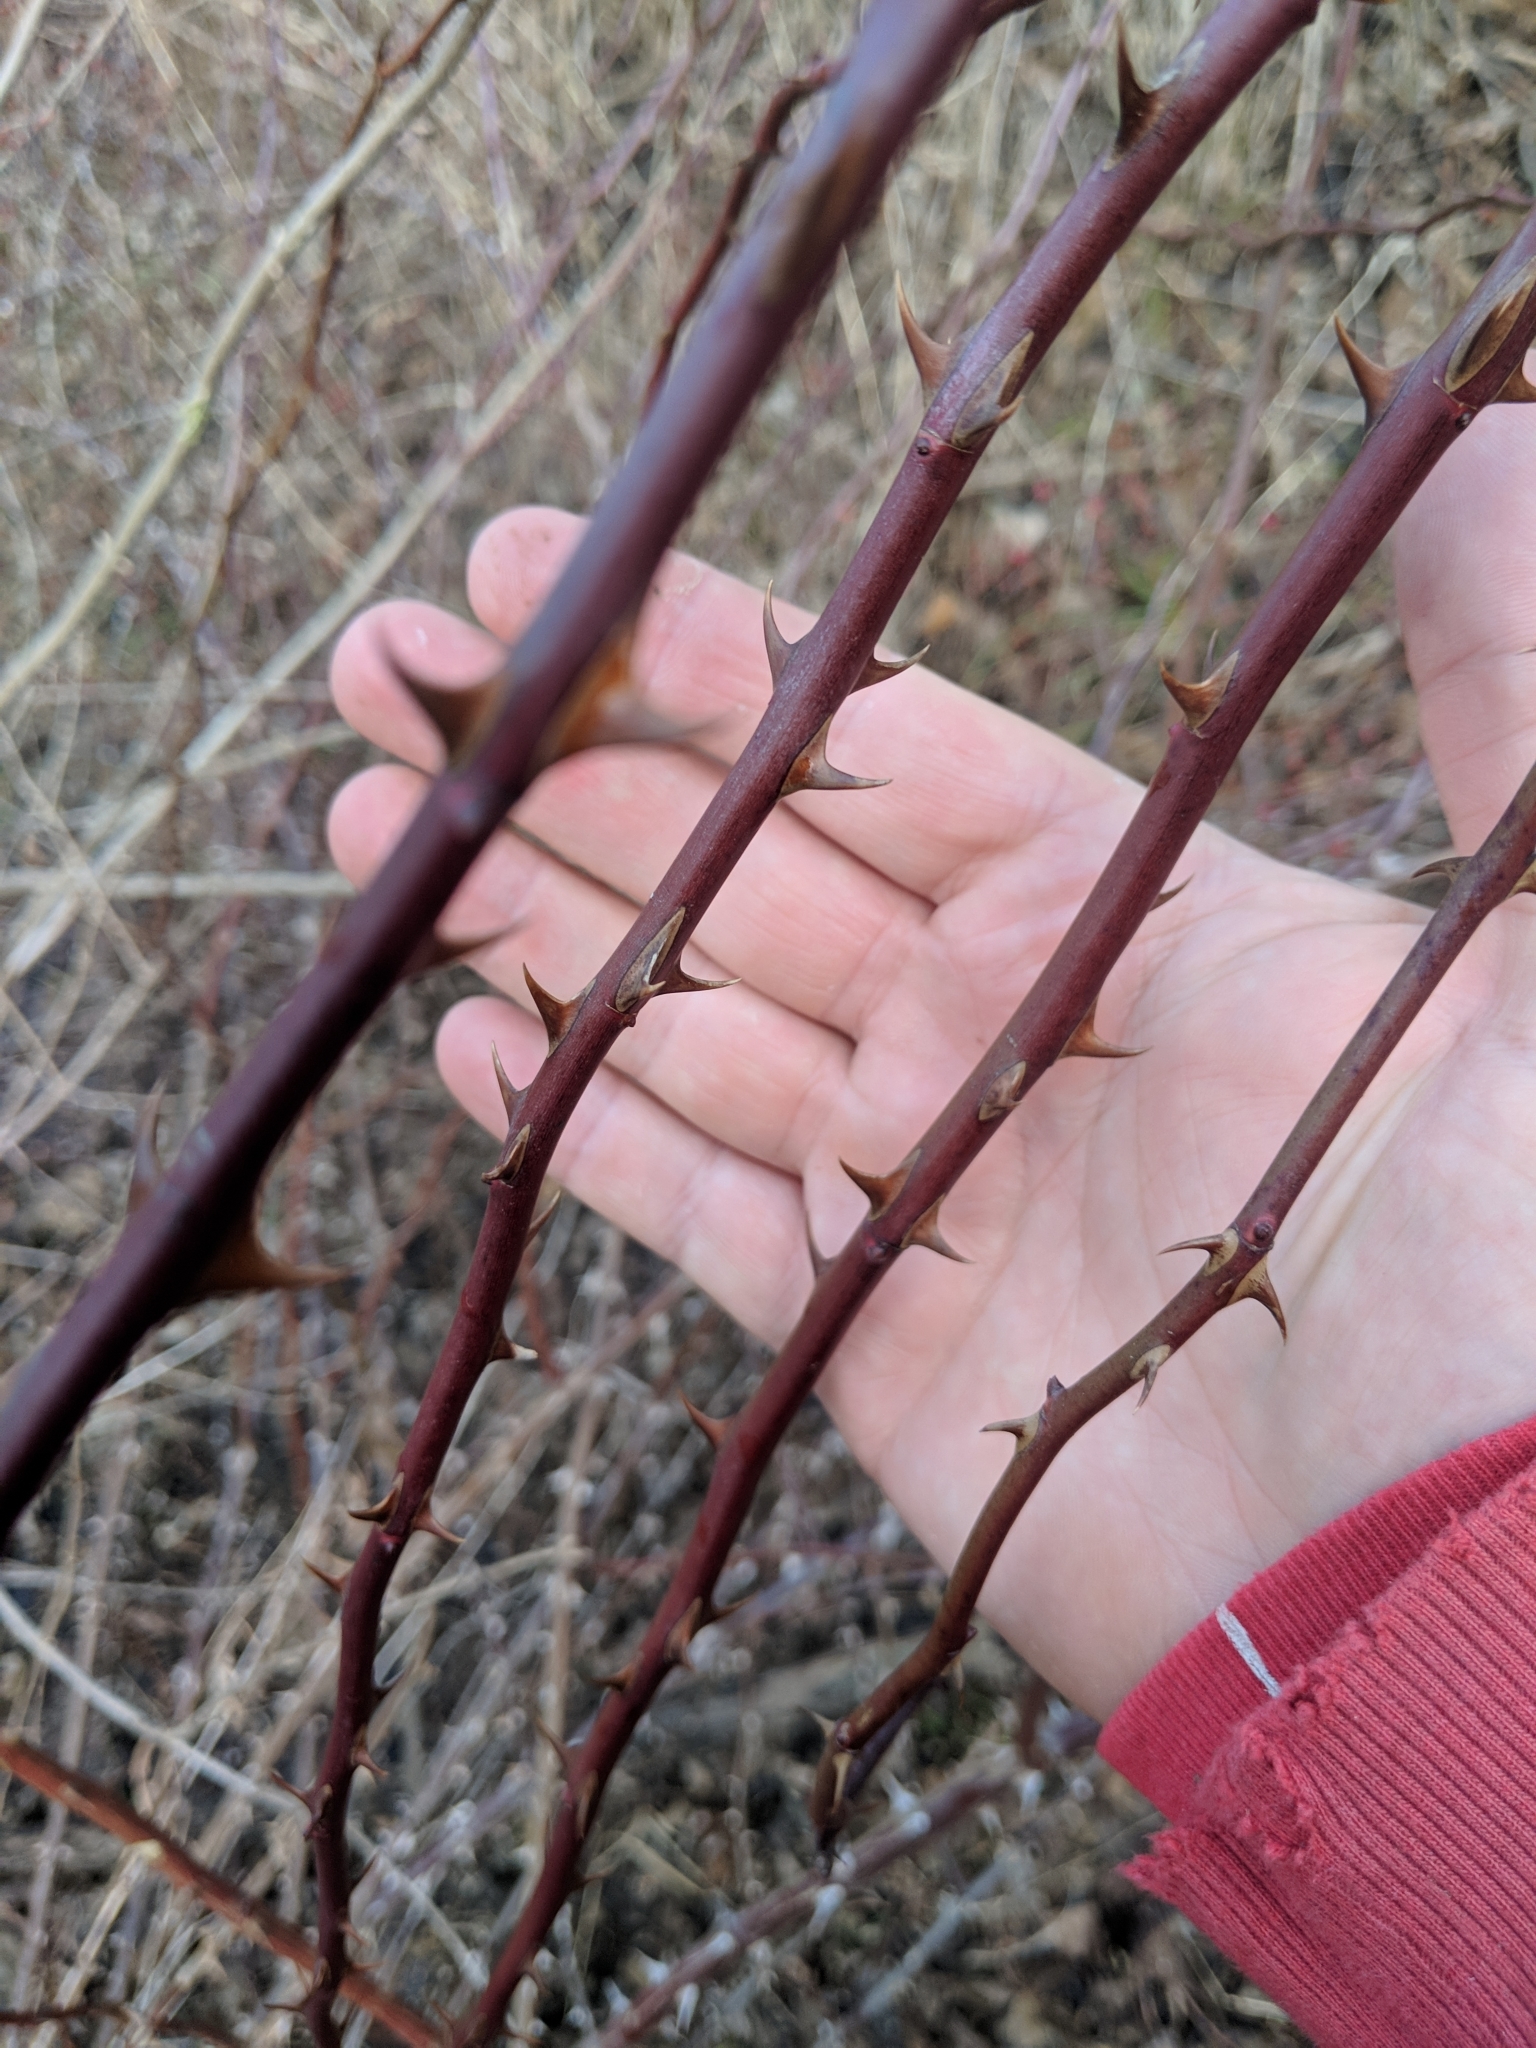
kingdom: Plantae
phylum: Tracheophyta
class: Magnoliopsida
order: Rosales
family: Rosaceae
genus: Rosa
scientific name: Rosa multiflora
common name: Multiflora rose
